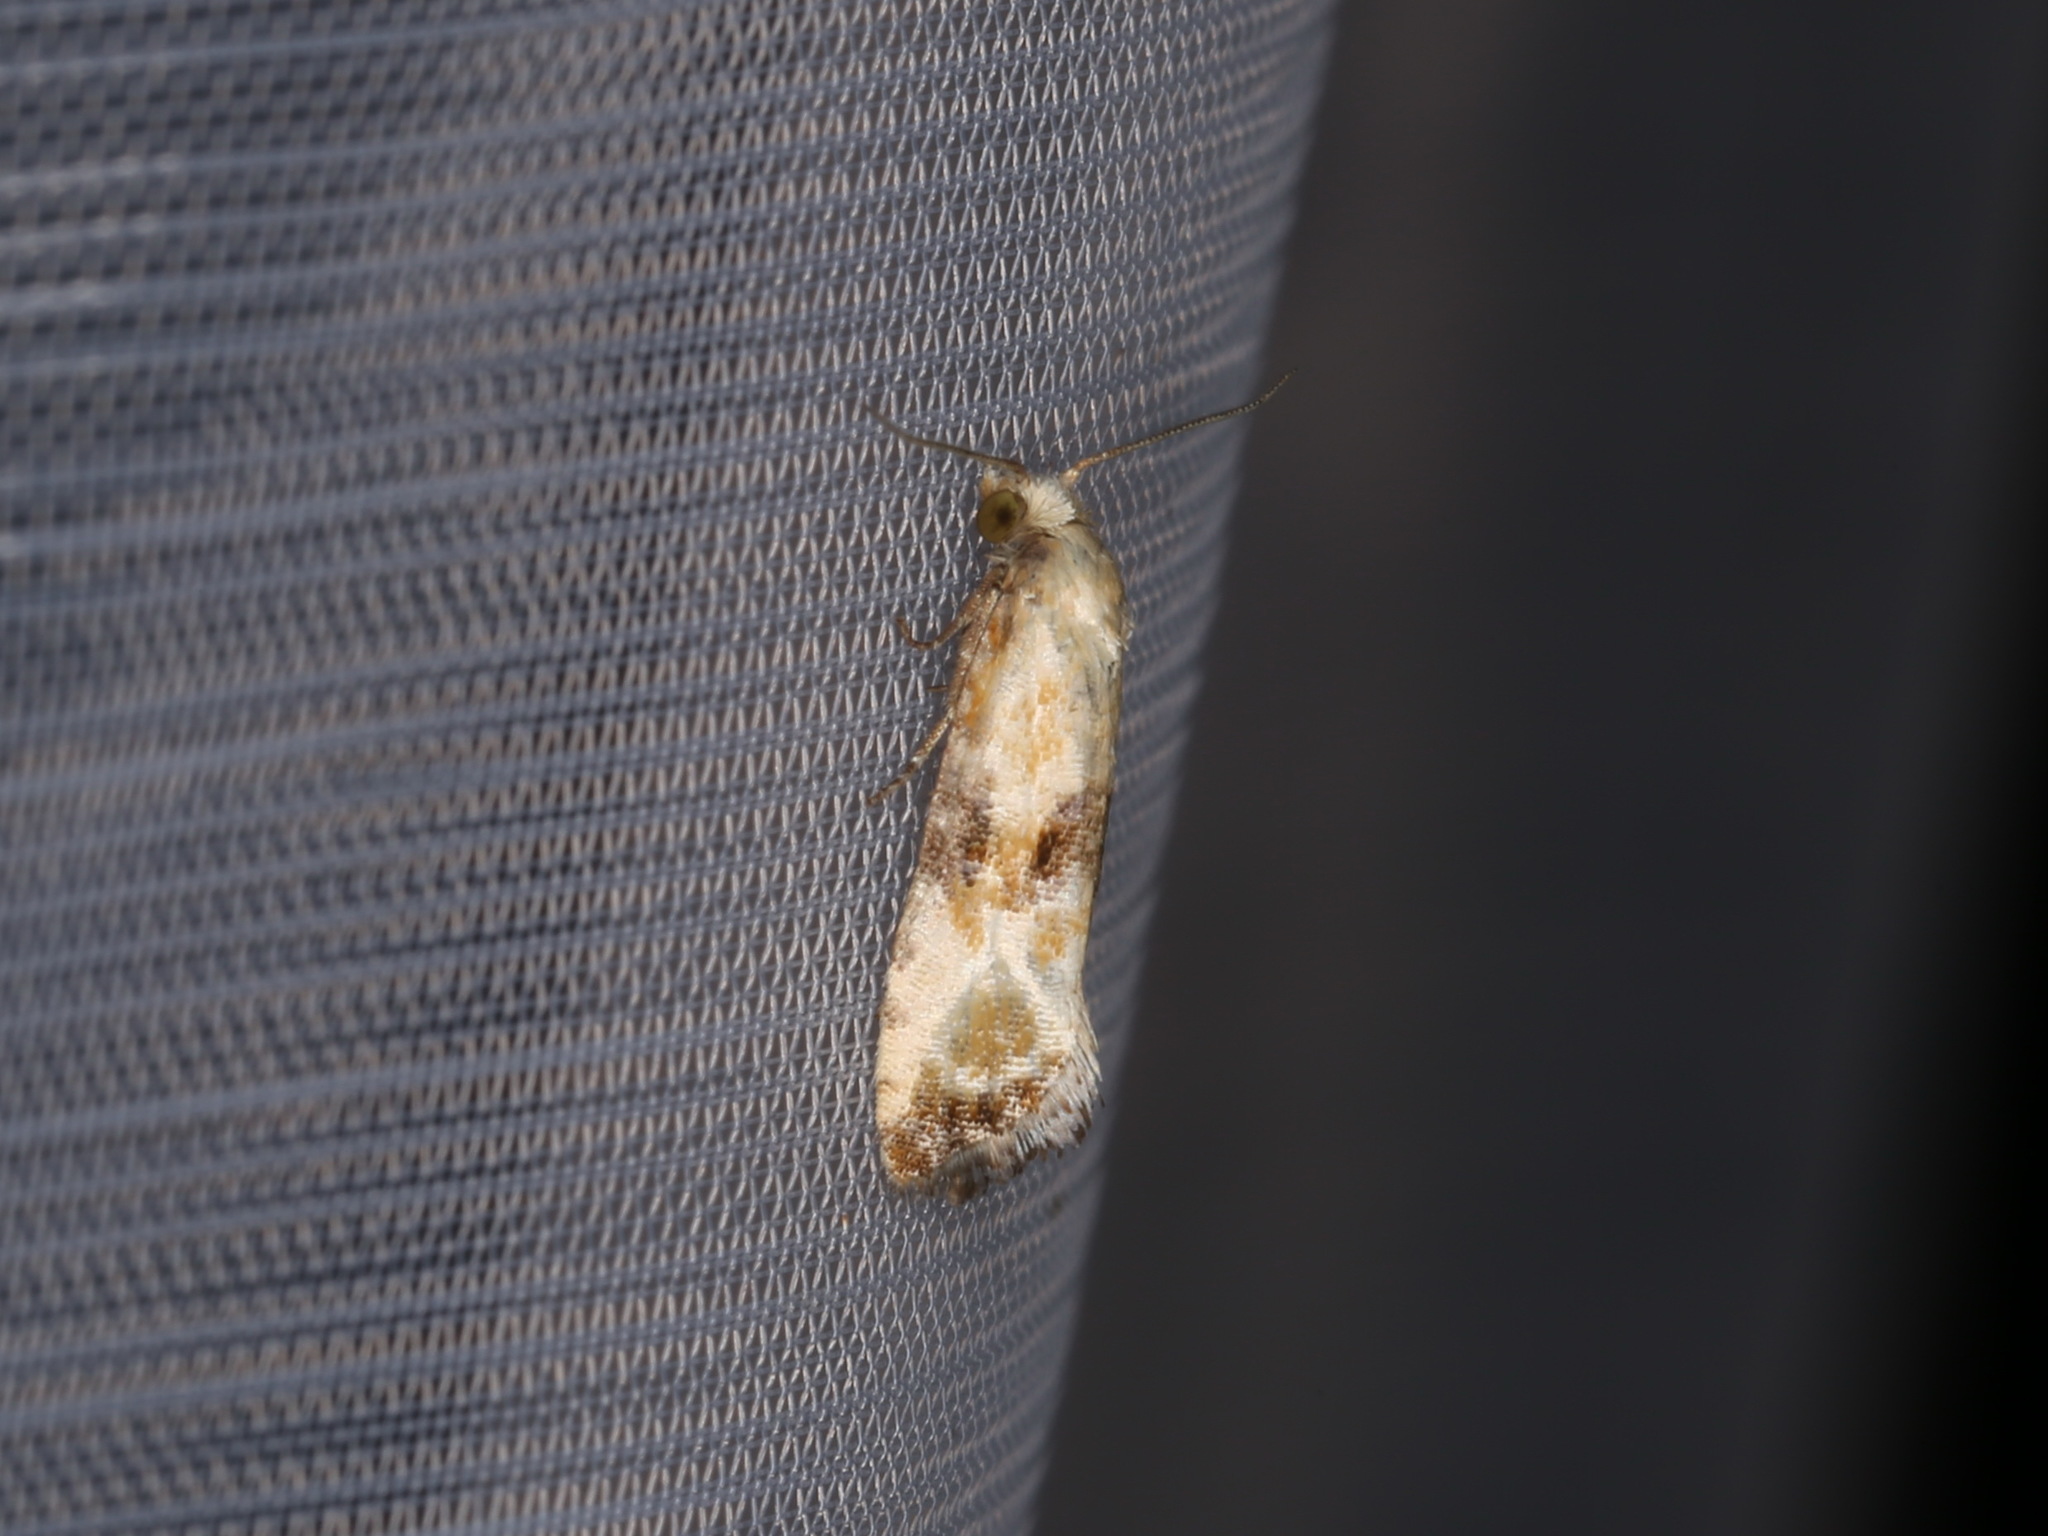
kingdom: Animalia
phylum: Arthropoda
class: Insecta
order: Lepidoptera
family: Tortricidae
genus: Eupoecilia
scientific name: Eupoecilia angustana
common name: Marbled conch
